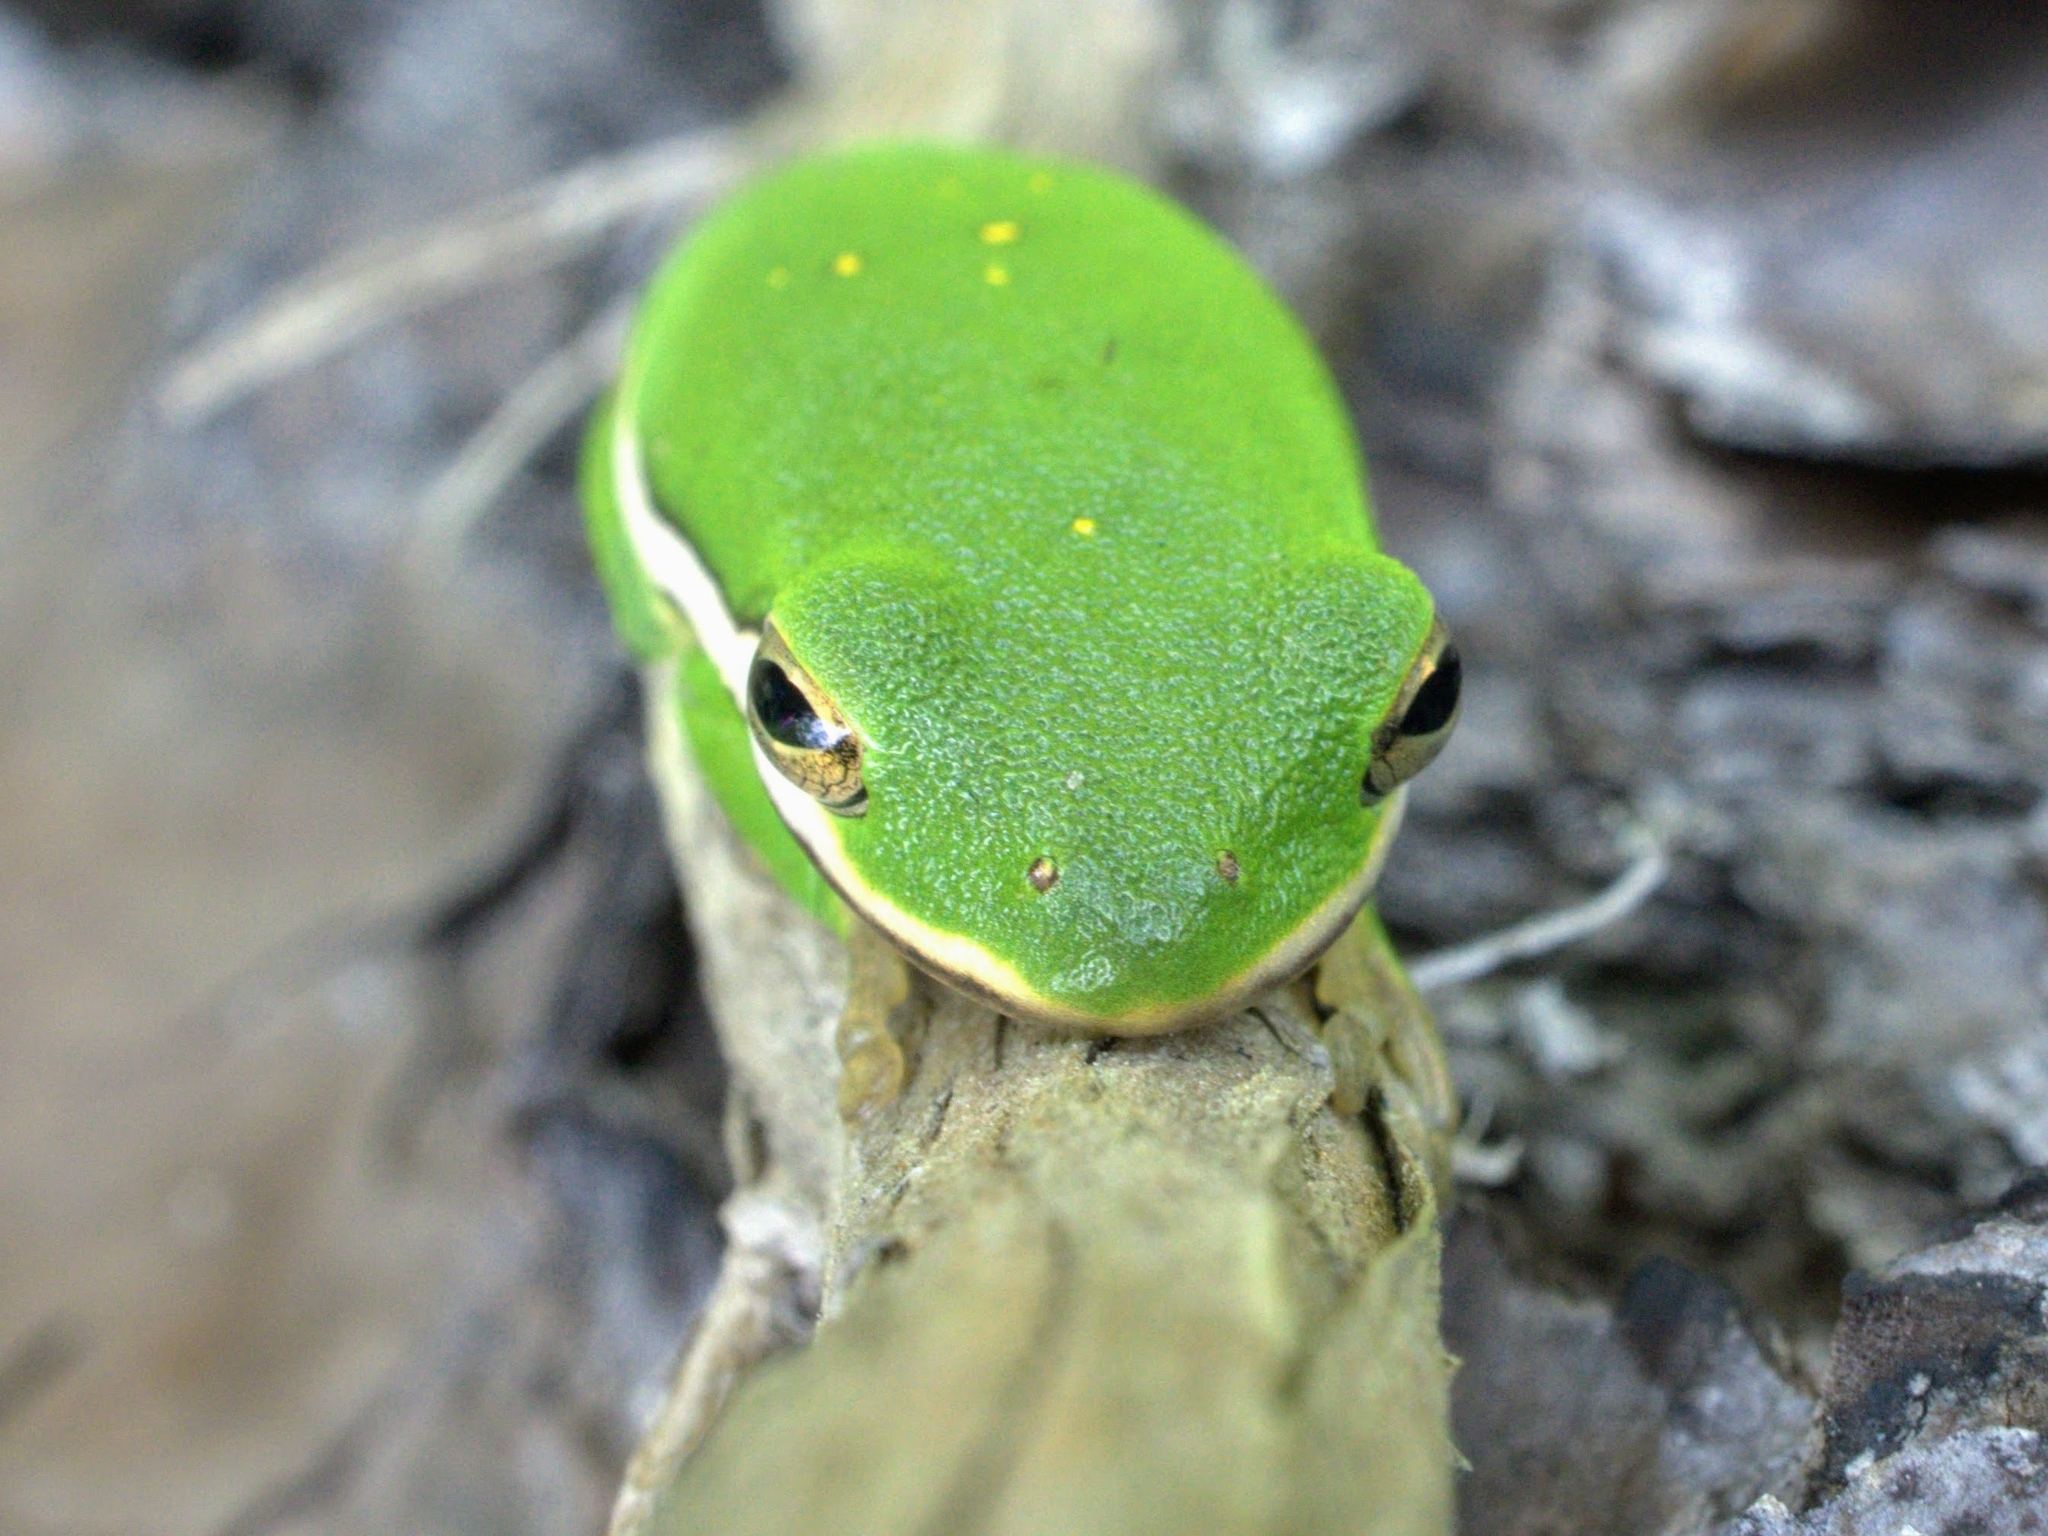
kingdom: Animalia
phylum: Chordata
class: Amphibia
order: Anura
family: Hylidae
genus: Dryophytes
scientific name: Dryophytes cinereus
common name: Green treefrog
